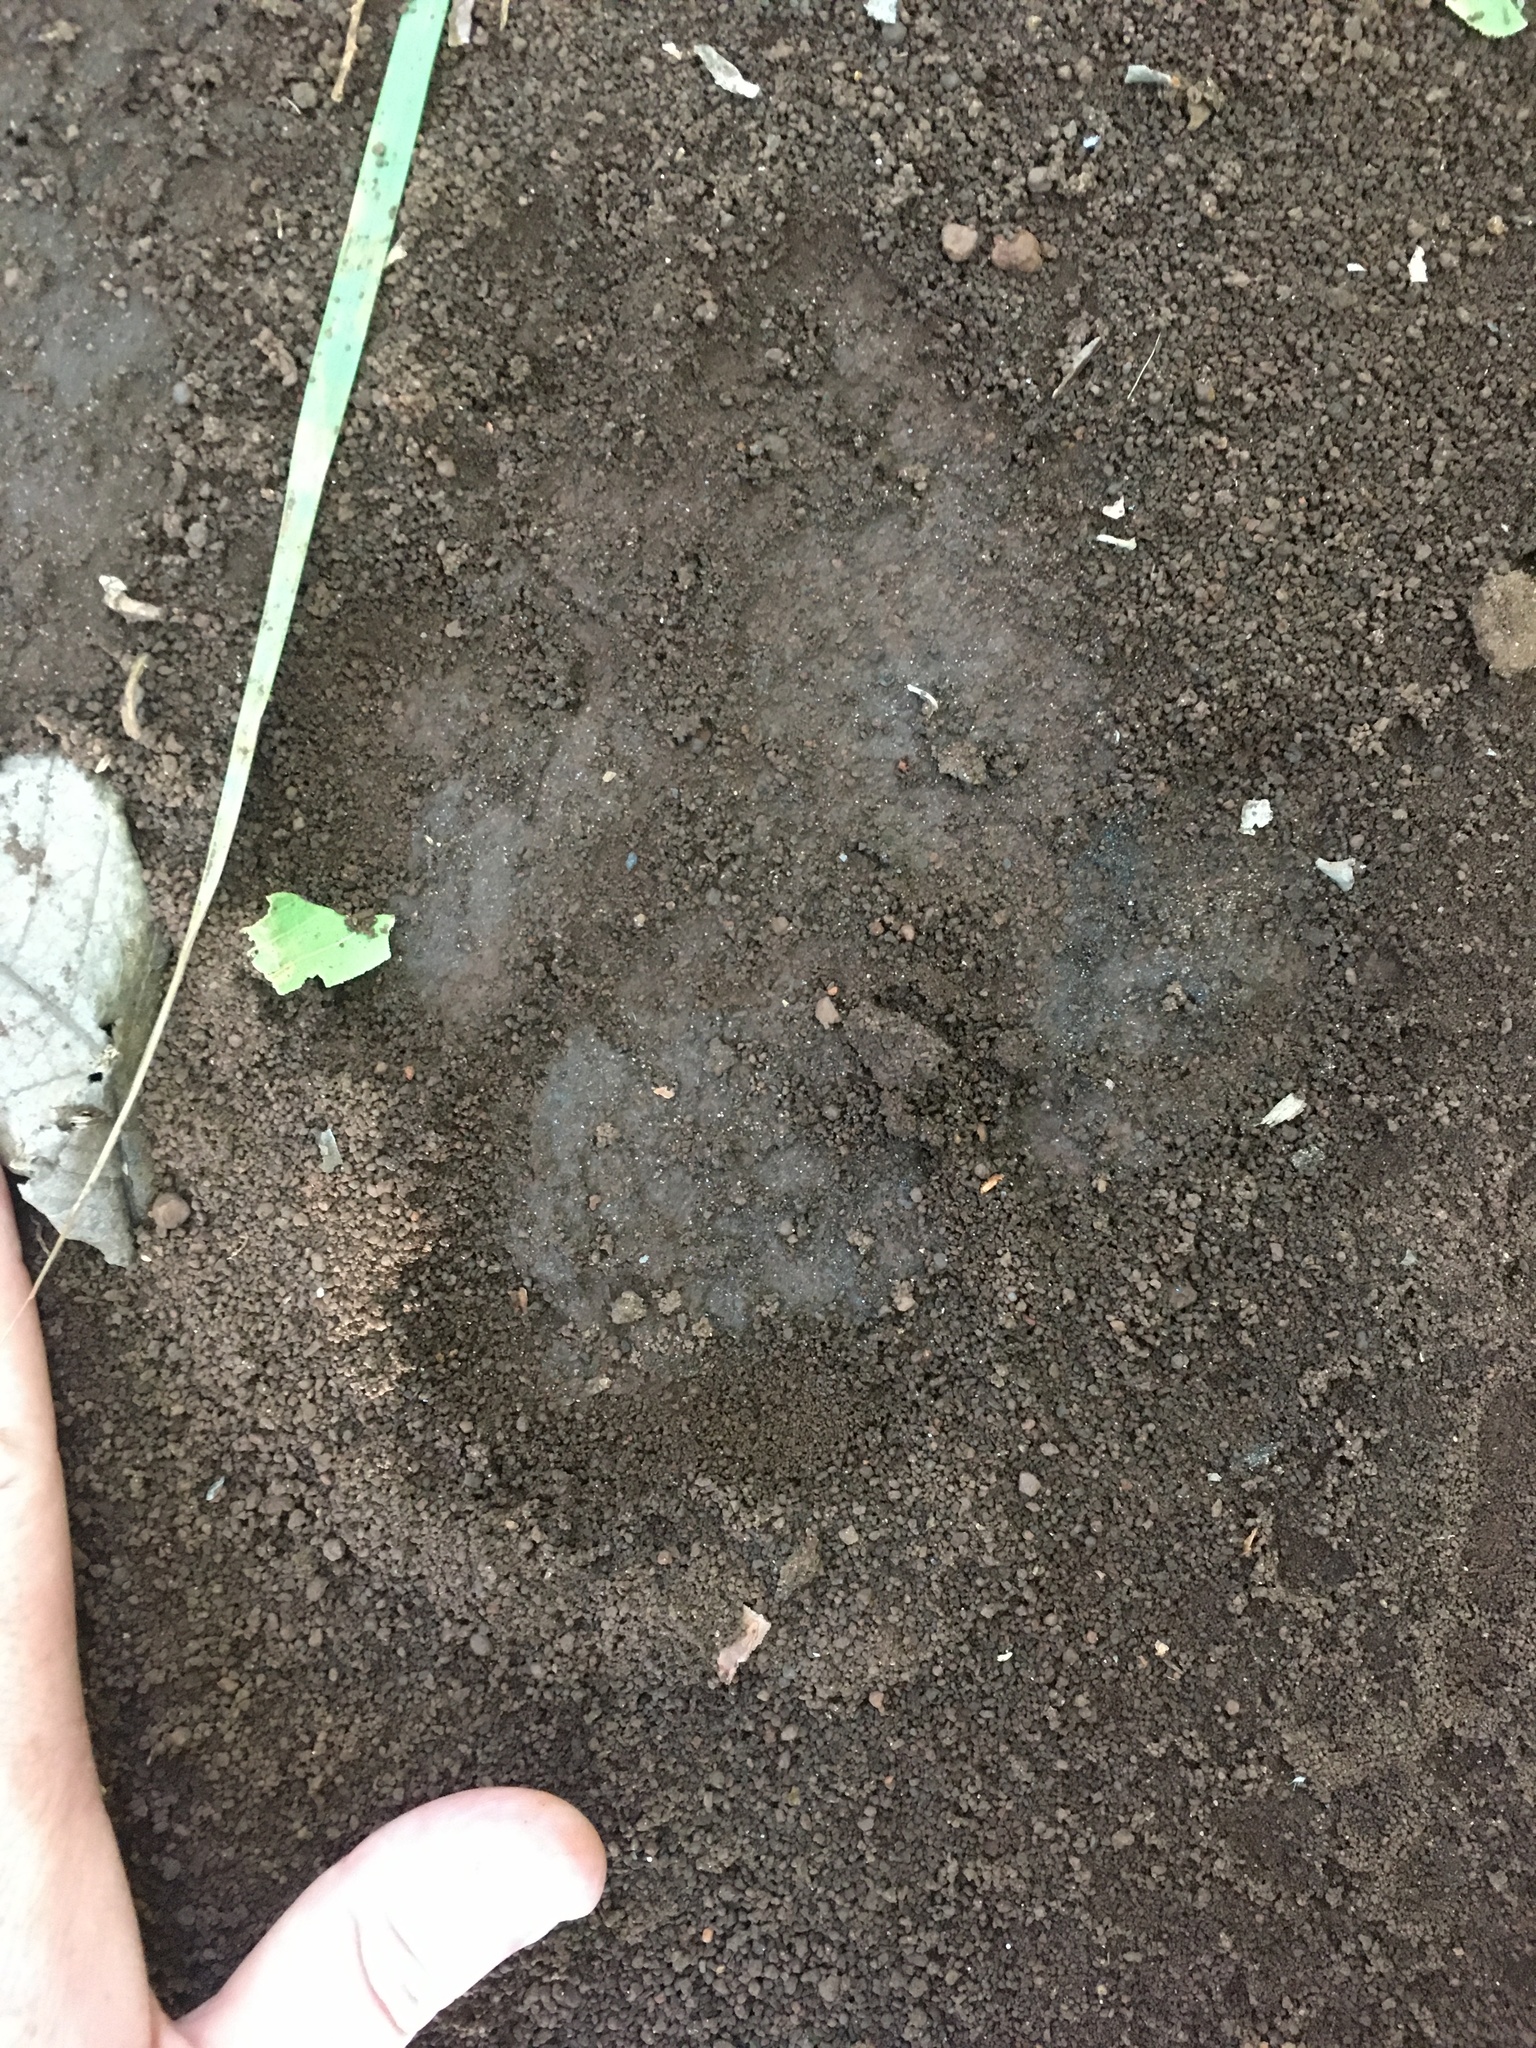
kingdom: Animalia
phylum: Chordata
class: Mammalia
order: Perissodactyla
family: Tapiridae
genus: Tapirus
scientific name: Tapirus terrestris
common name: Brazilian tapir
